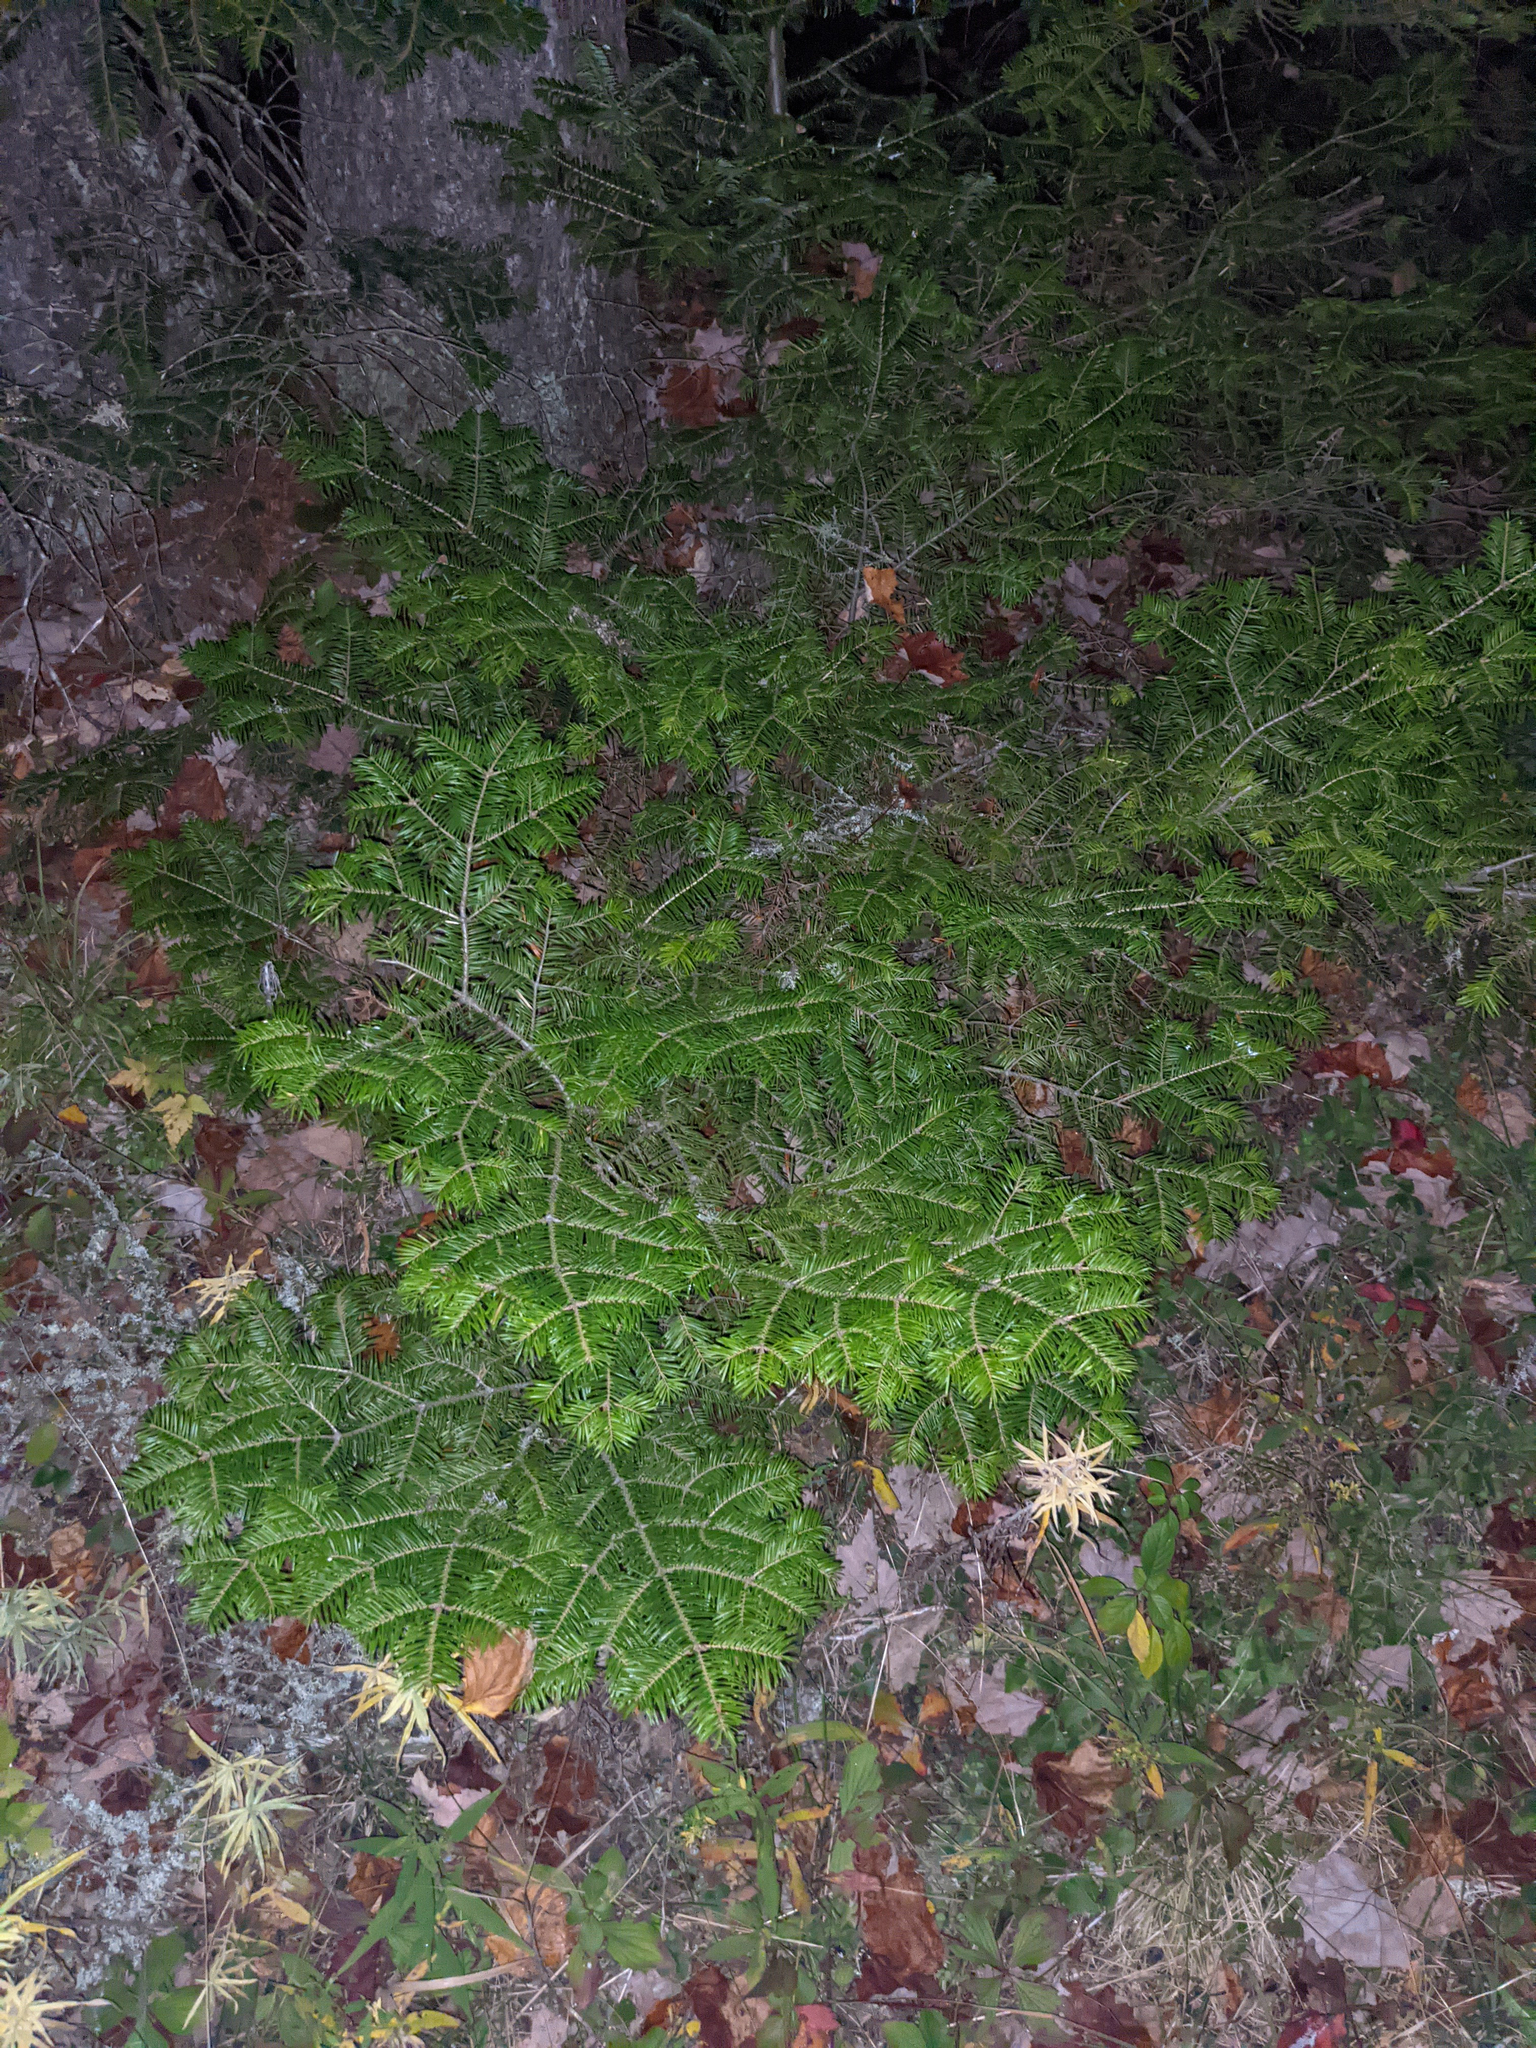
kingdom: Plantae
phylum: Tracheophyta
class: Pinopsida
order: Pinales
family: Pinaceae
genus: Abies
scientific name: Abies balsamea
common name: Balsam fir
